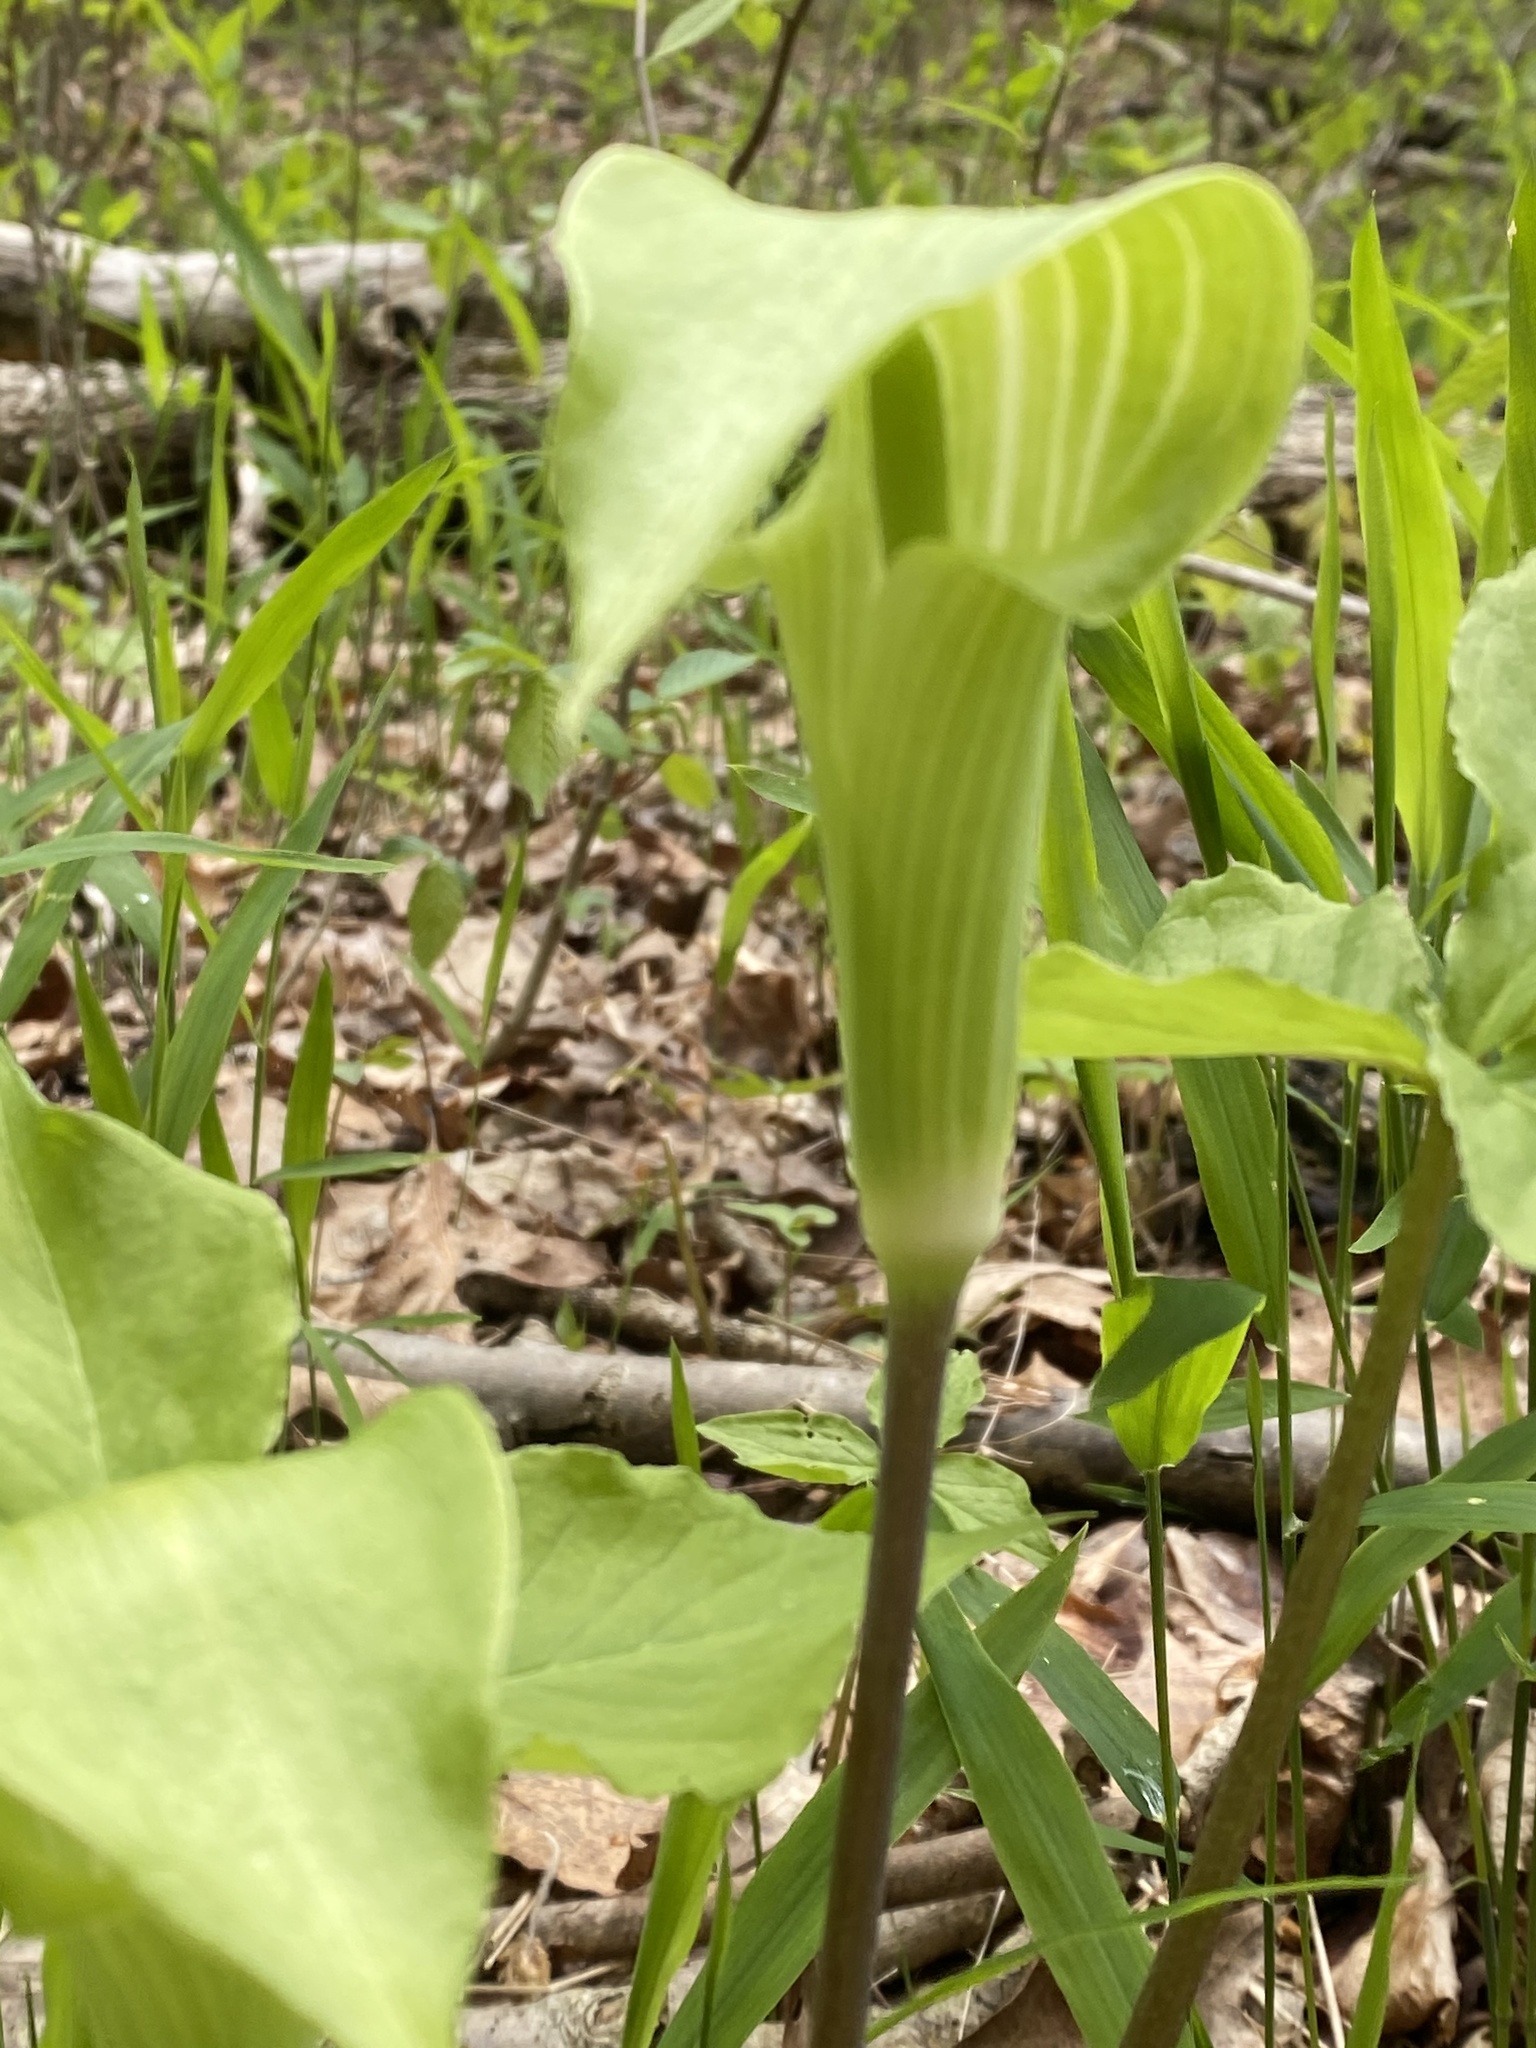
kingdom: Plantae
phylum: Tracheophyta
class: Liliopsida
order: Alismatales
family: Araceae
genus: Arisaema
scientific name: Arisaema triphyllum
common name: Jack-in-the-pulpit
